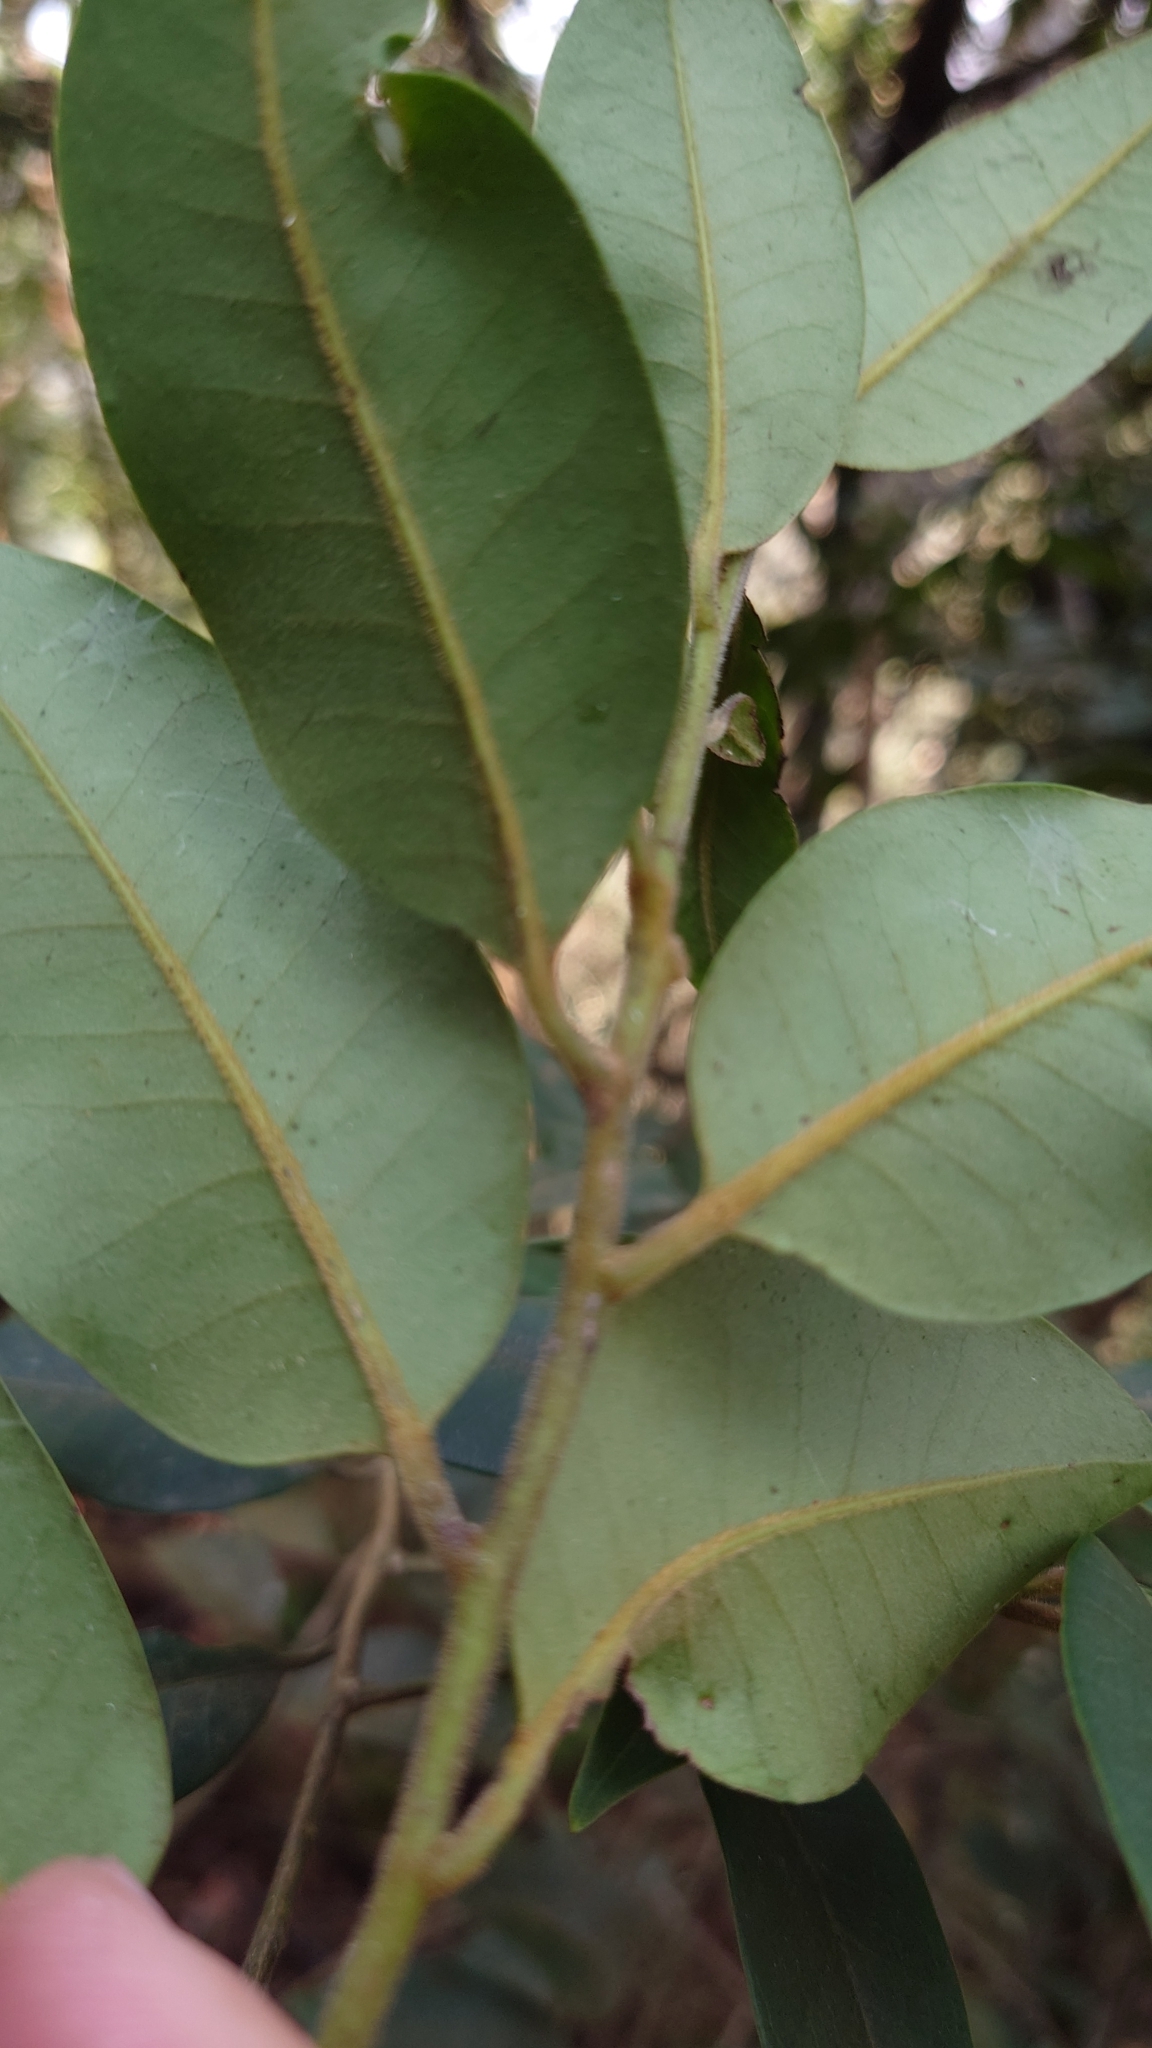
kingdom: Plantae
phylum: Tracheophyta
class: Magnoliopsida
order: Aquifoliales
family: Aquifoliaceae
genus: Ilex
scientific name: Ilex lonicerifolia
